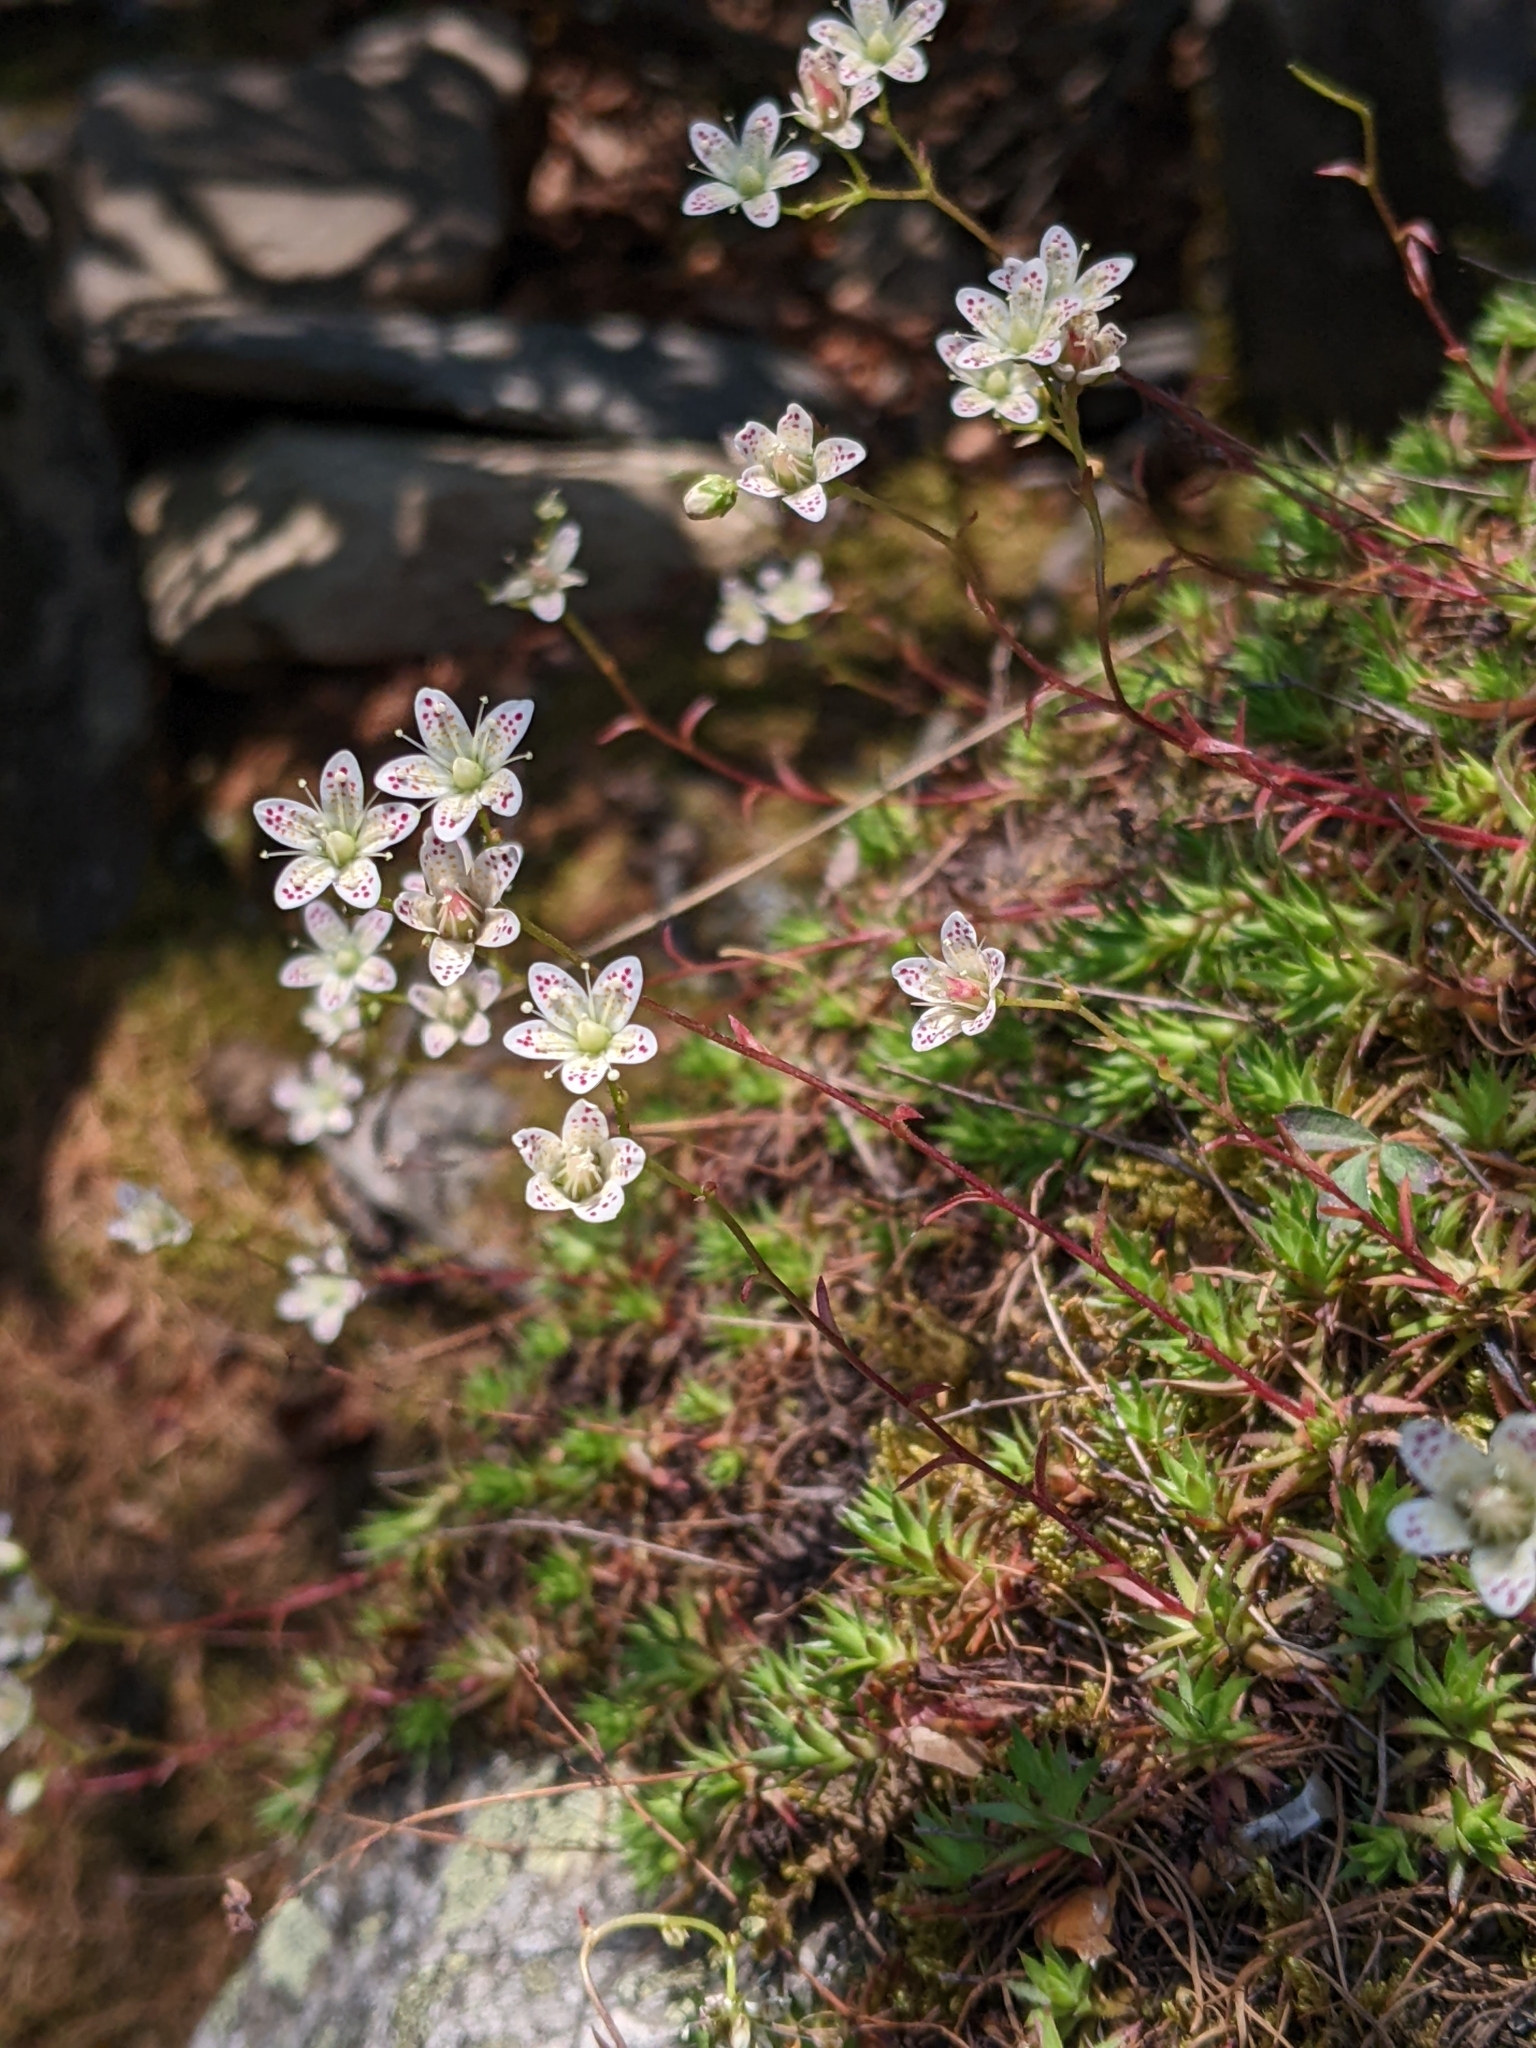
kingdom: Plantae
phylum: Tracheophyta
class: Magnoliopsida
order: Saxifragales
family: Saxifragaceae
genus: Saxifraga
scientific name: Saxifraga bronchialis
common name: Matted saxifrage
